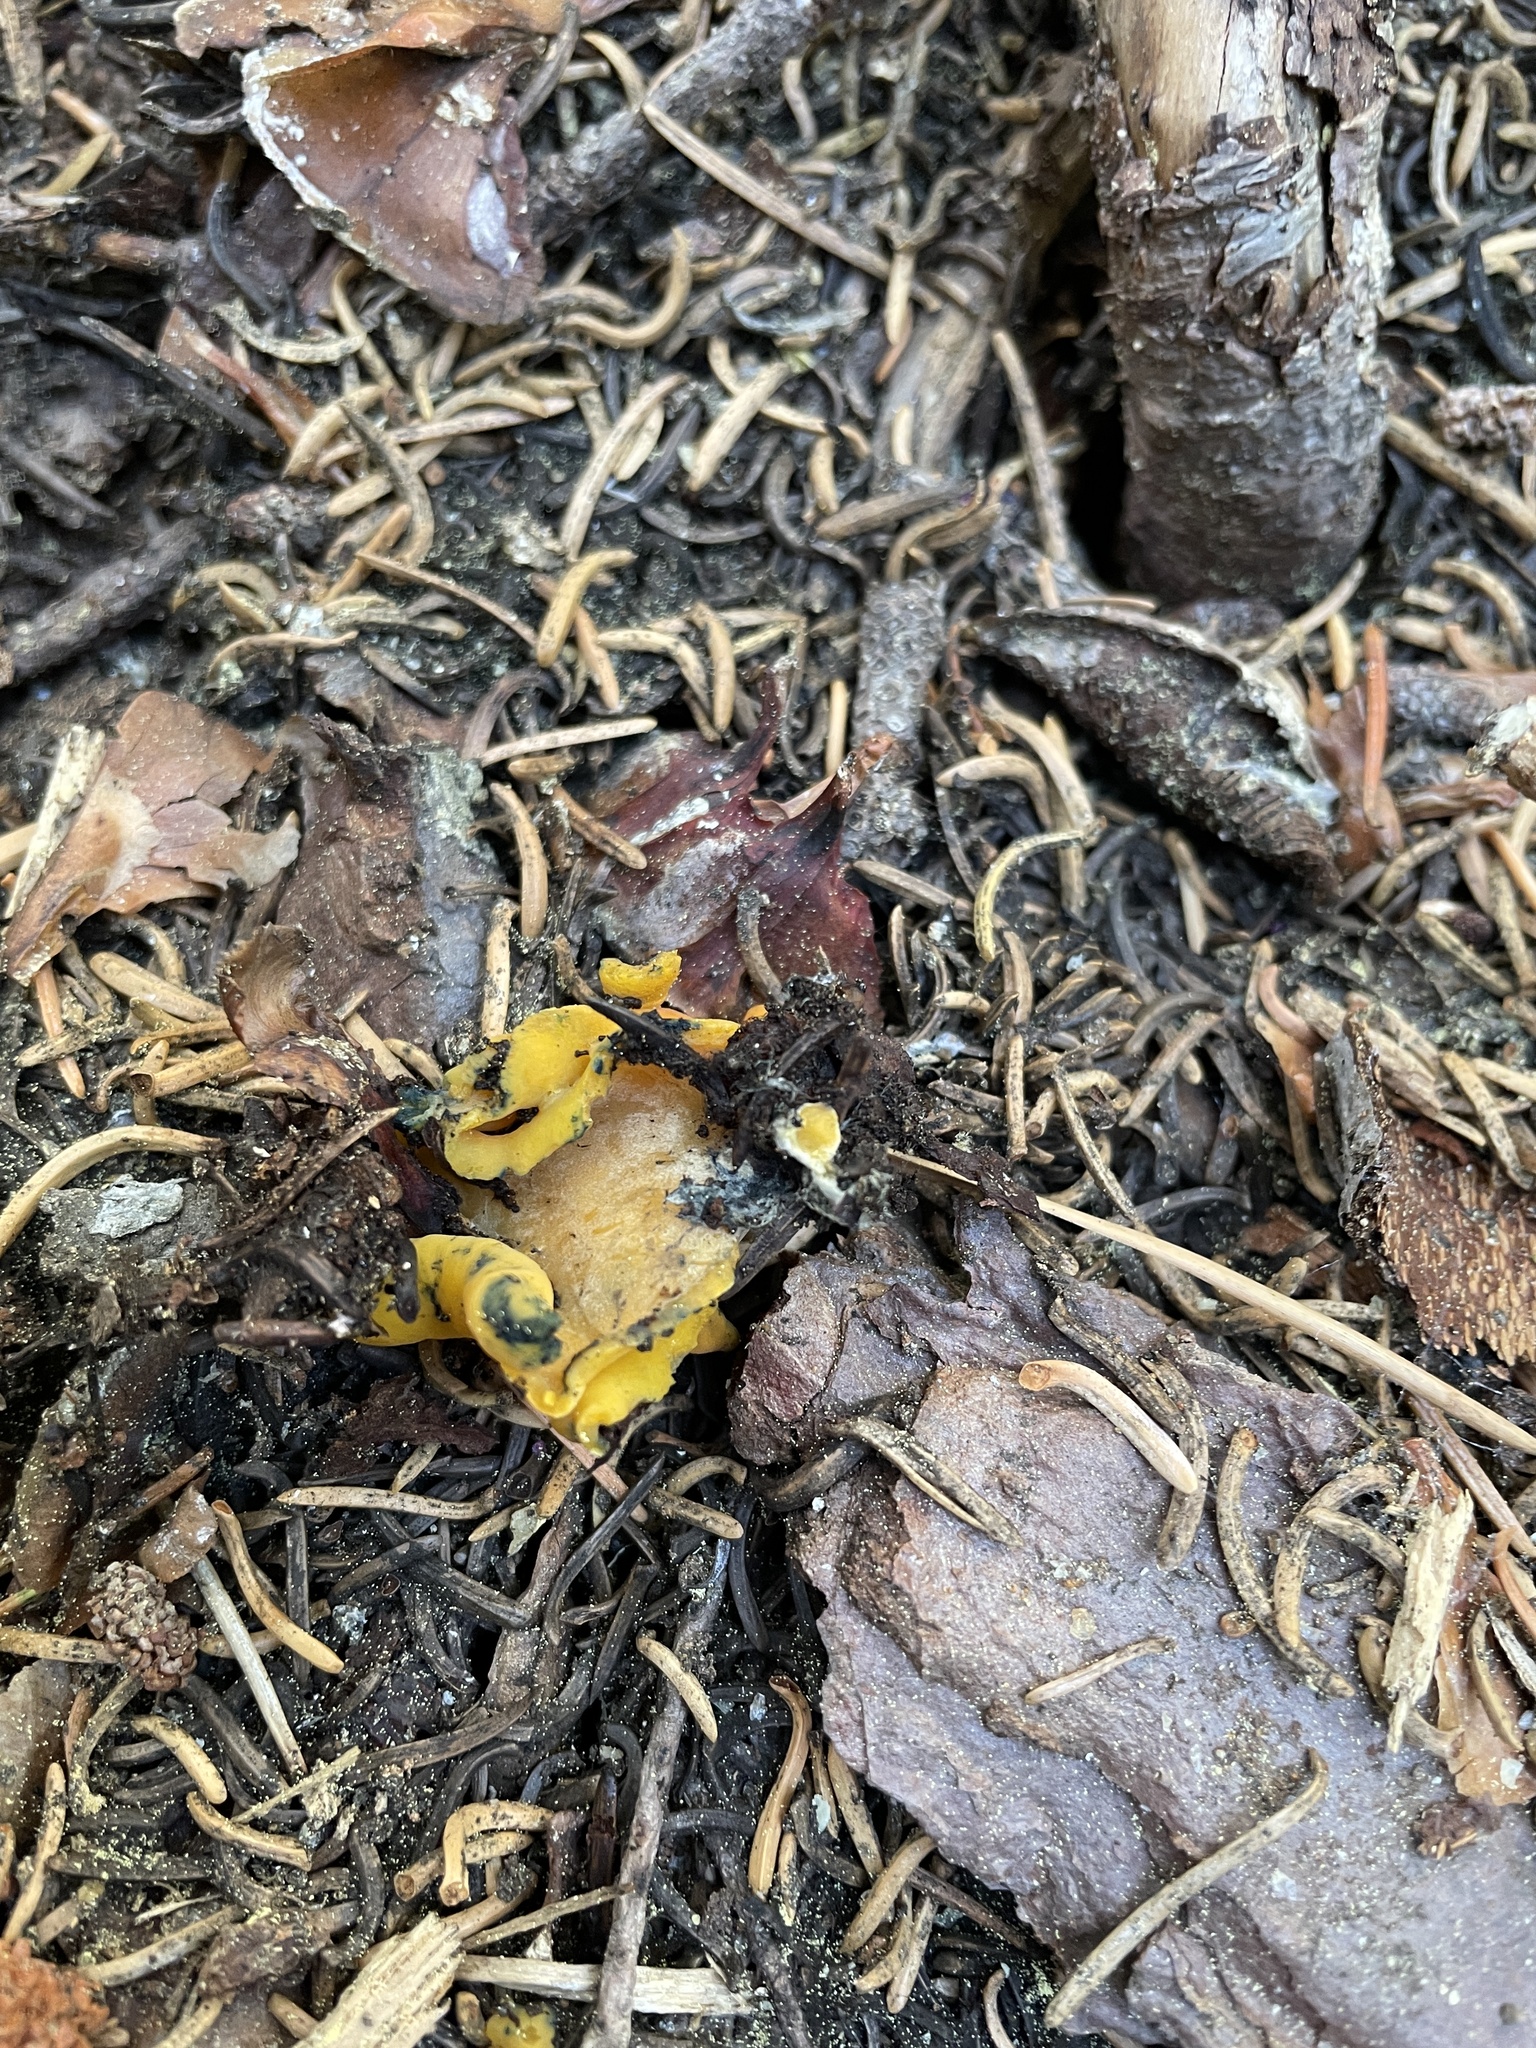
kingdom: Fungi
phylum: Ascomycota
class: Pezizomycetes
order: Pezizales
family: Caloscyphaceae
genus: Caloscypha
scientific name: Caloscypha fulgens
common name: Golden cup
